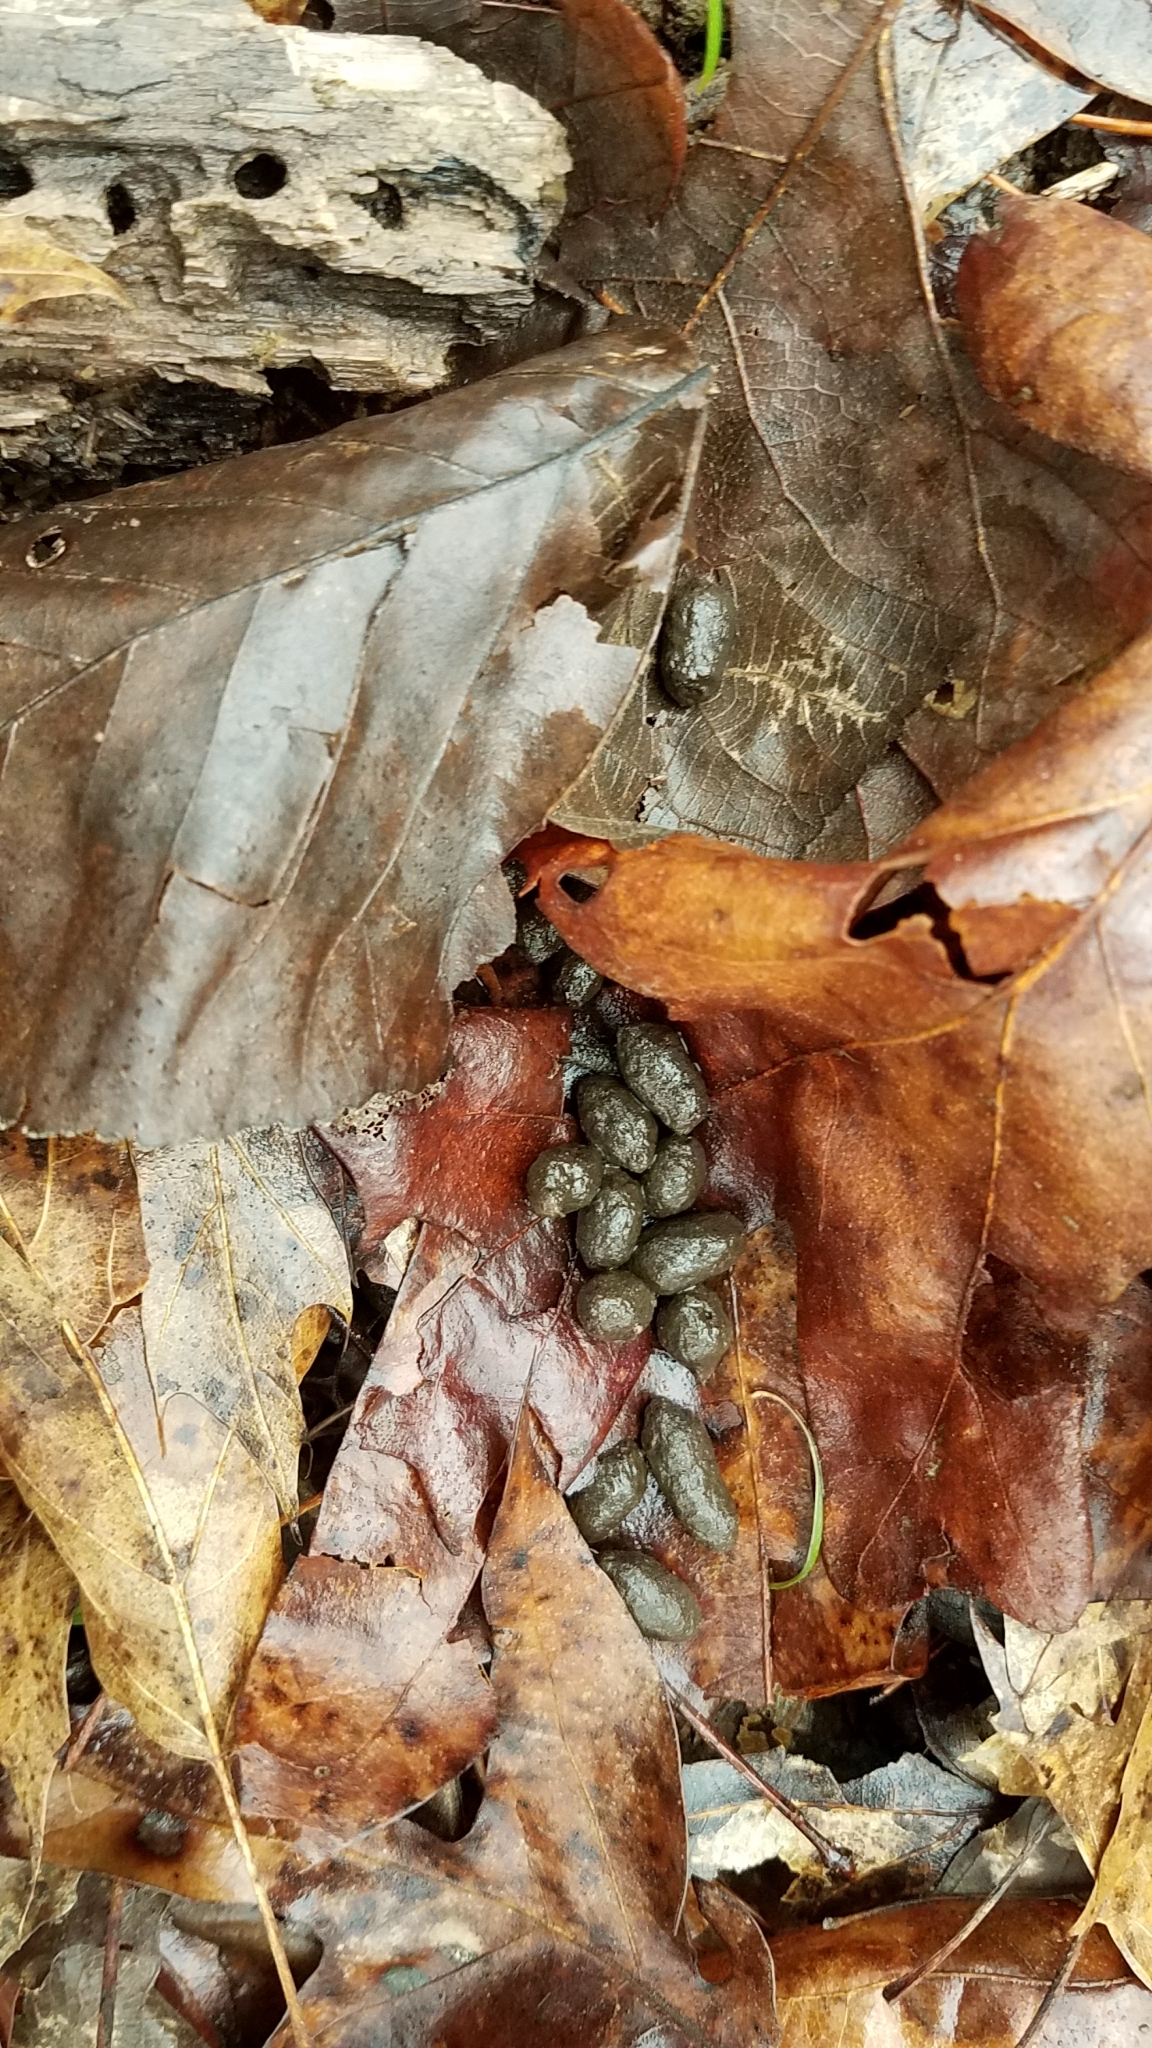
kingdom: Animalia
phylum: Chordata
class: Mammalia
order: Artiodactyla
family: Cervidae
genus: Odocoileus
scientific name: Odocoileus virginianus
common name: White-tailed deer
